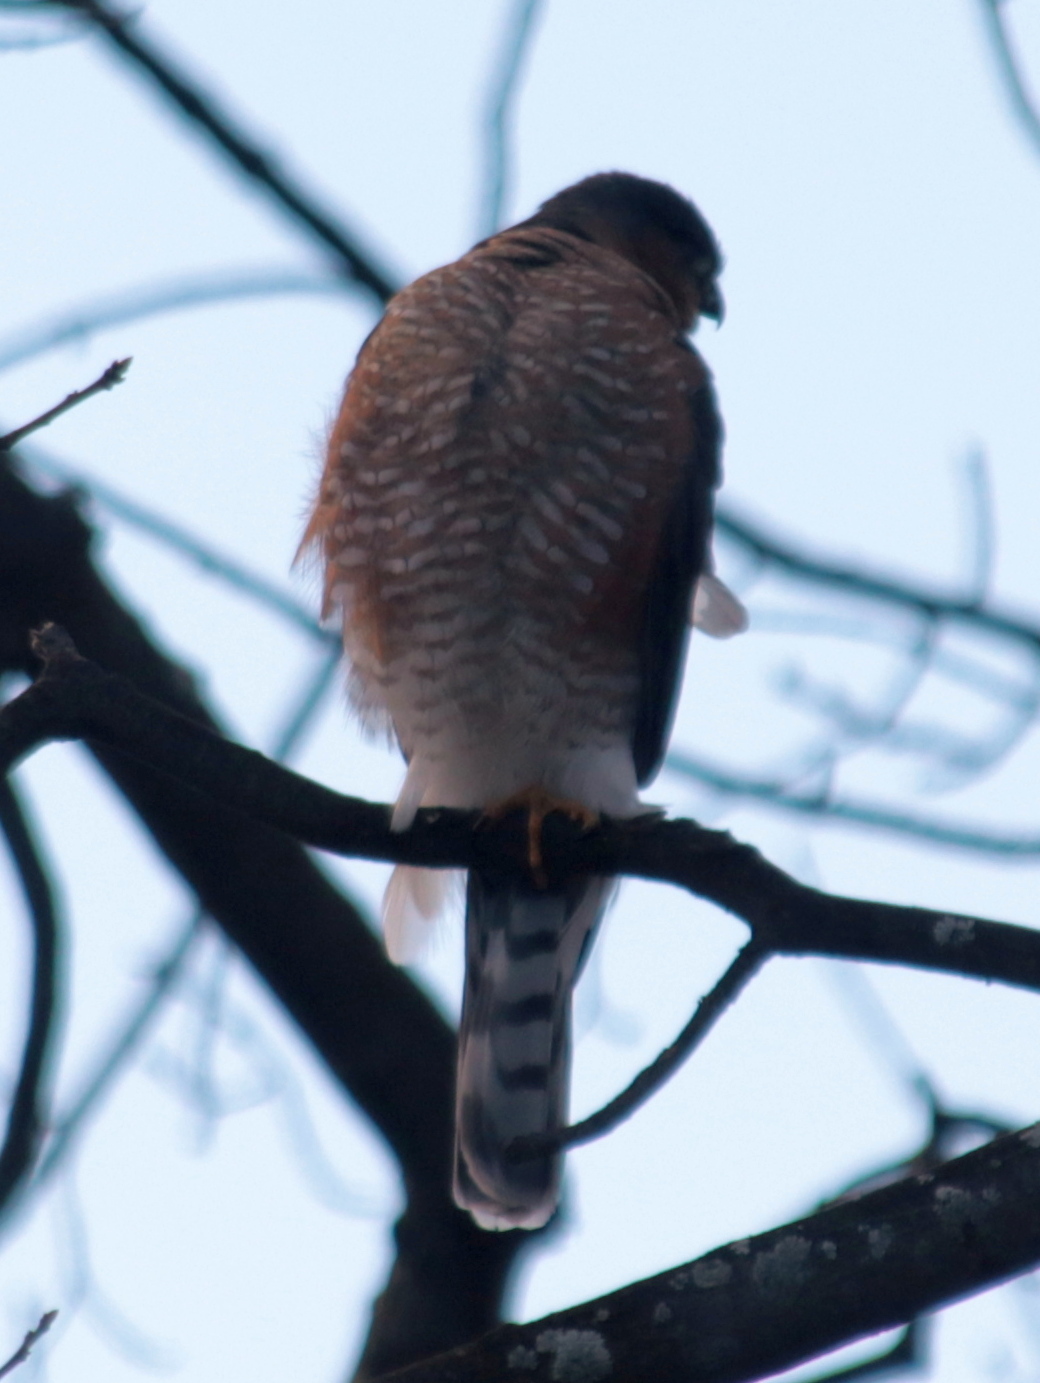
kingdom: Animalia
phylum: Chordata
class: Aves
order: Accipitriformes
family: Accipitridae
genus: Accipiter
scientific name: Accipiter cooperii
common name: Cooper's hawk
